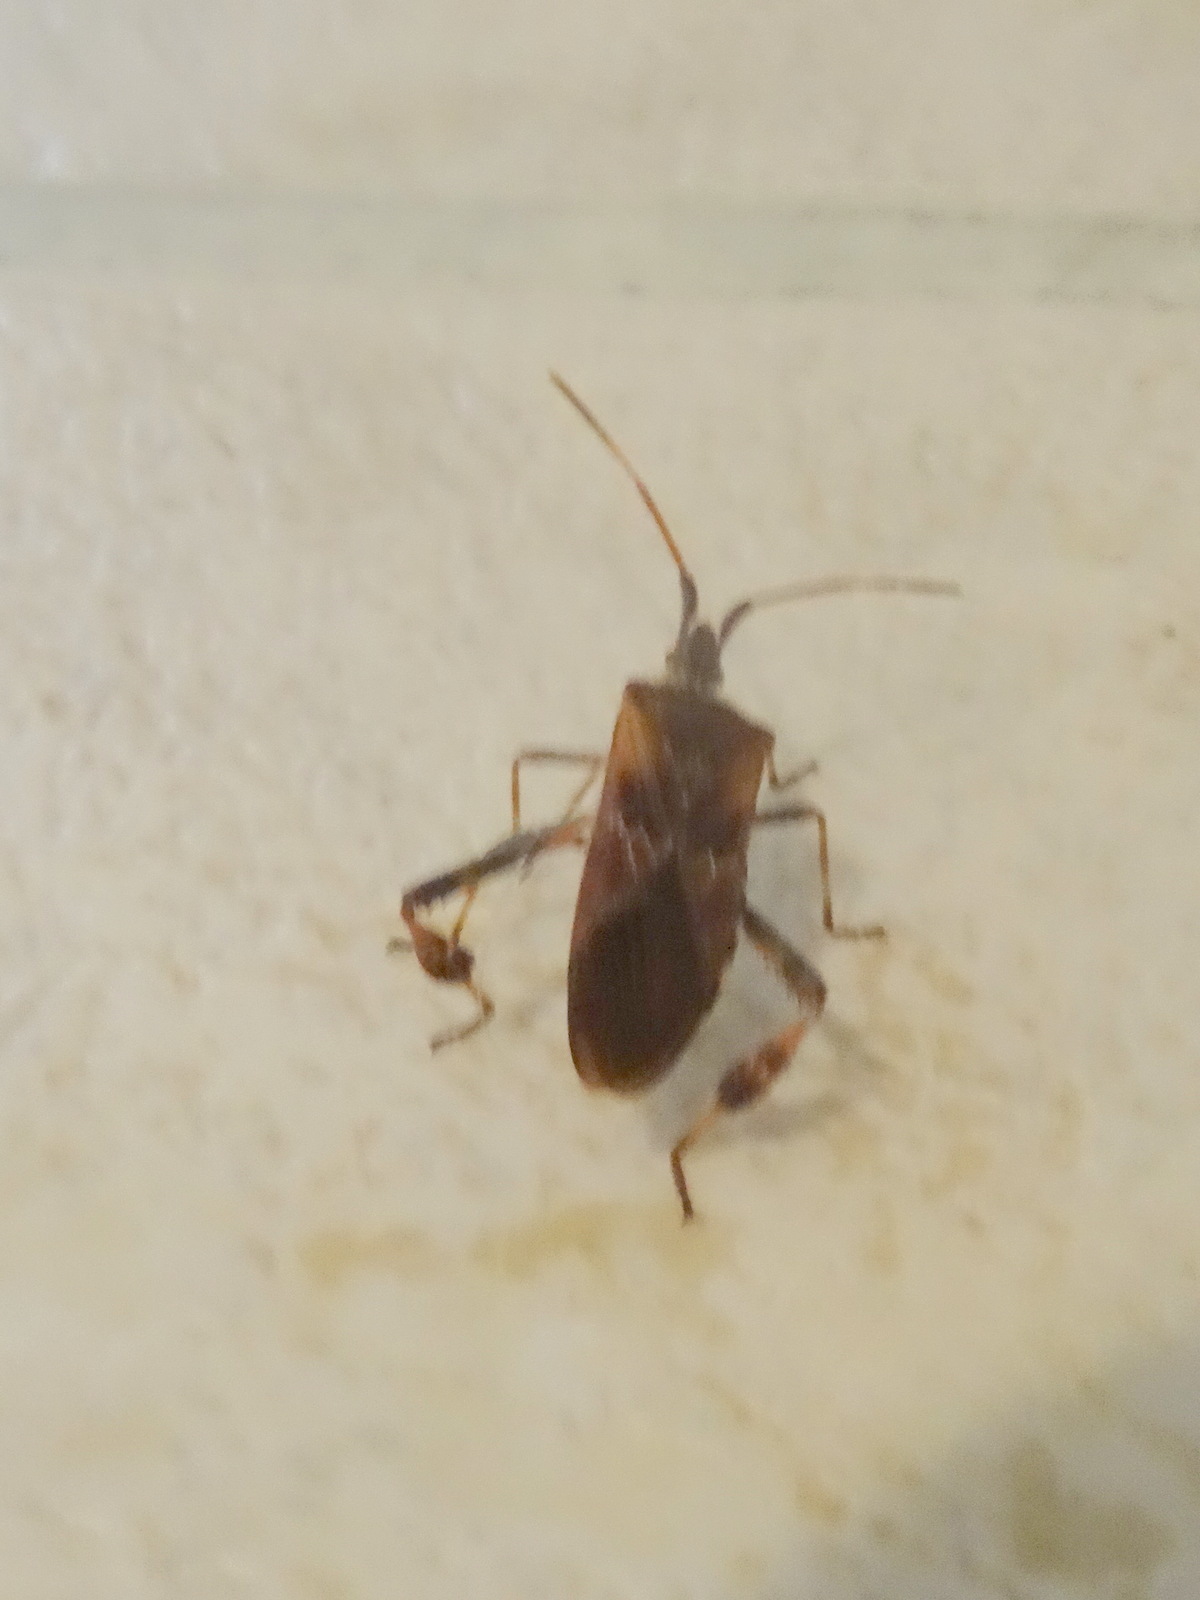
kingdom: Animalia
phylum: Arthropoda
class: Insecta
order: Hemiptera
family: Coreidae
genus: Leptoglossus
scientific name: Leptoglossus occidentalis
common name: Western conifer-seed bug
